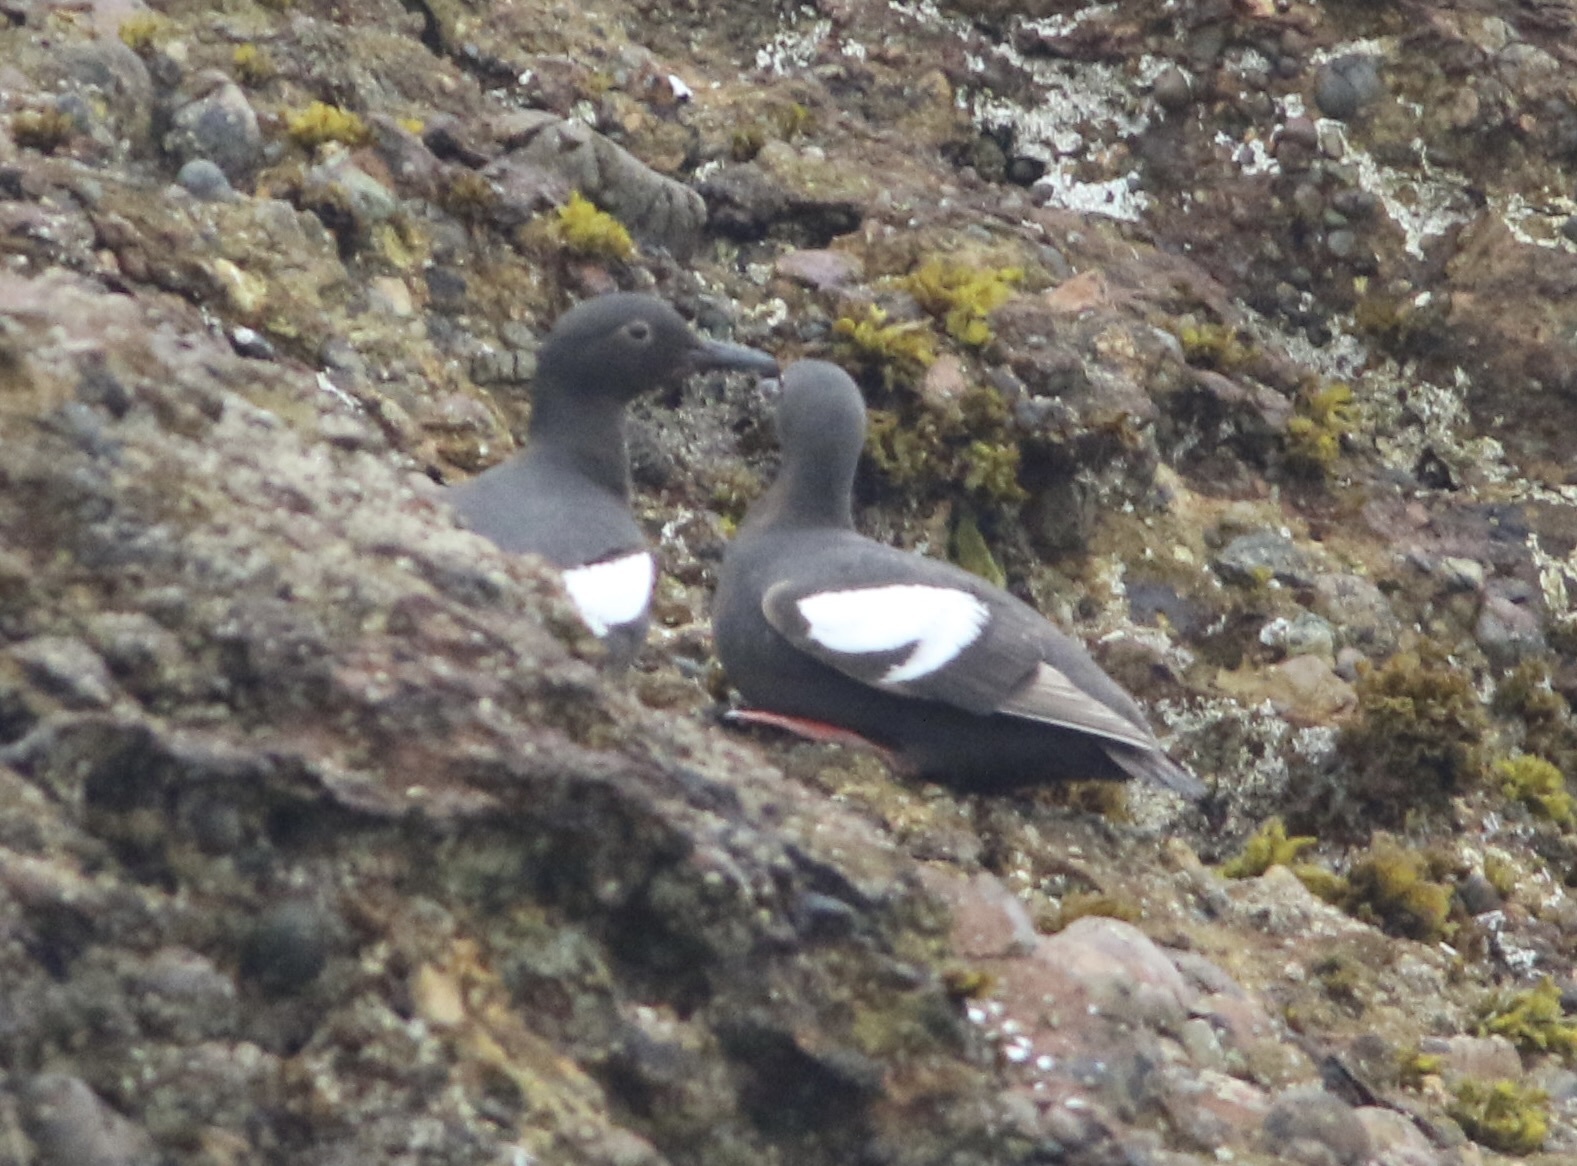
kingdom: Animalia
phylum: Chordata
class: Aves
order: Charadriiformes
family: Alcidae
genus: Cepphus
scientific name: Cepphus columba
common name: Pigeon guillemot
